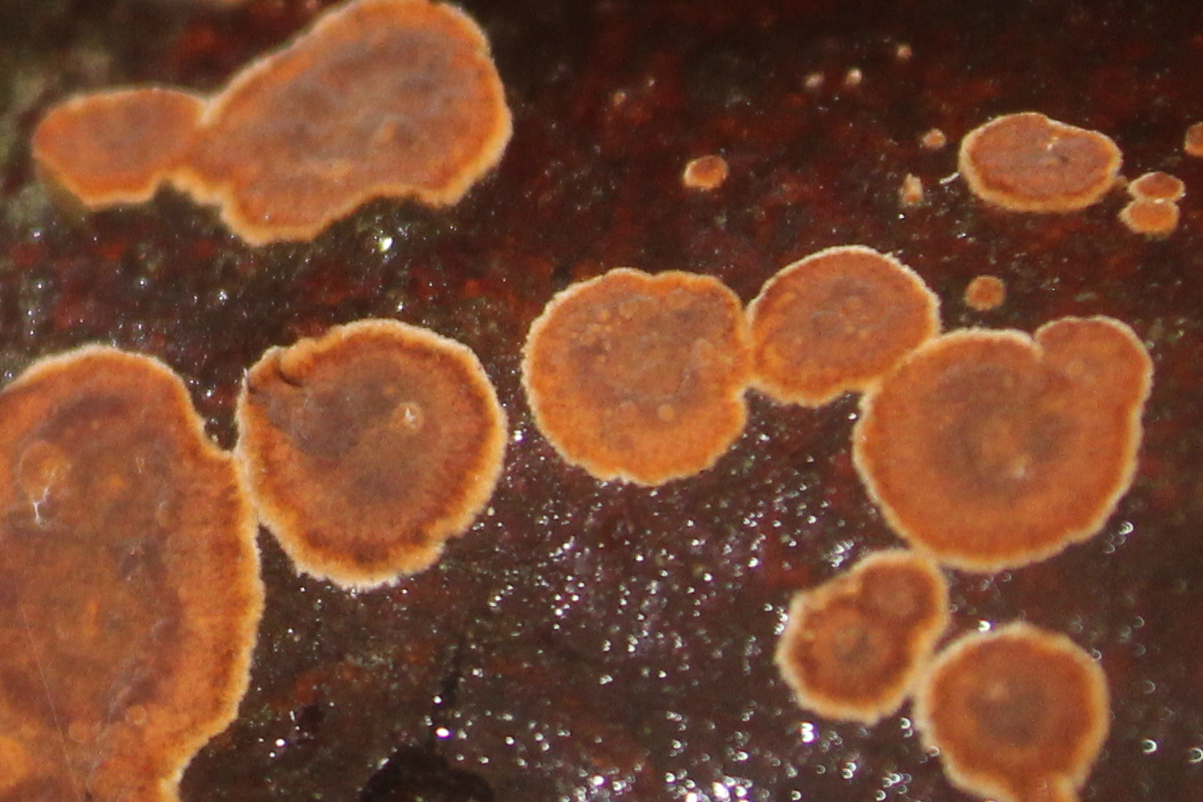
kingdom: Fungi
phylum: Basidiomycota
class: Agaricomycetes
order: Russulales
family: Stereaceae
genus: Stereum
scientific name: Stereum sanguinolentum
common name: Bleeding conifer crust
